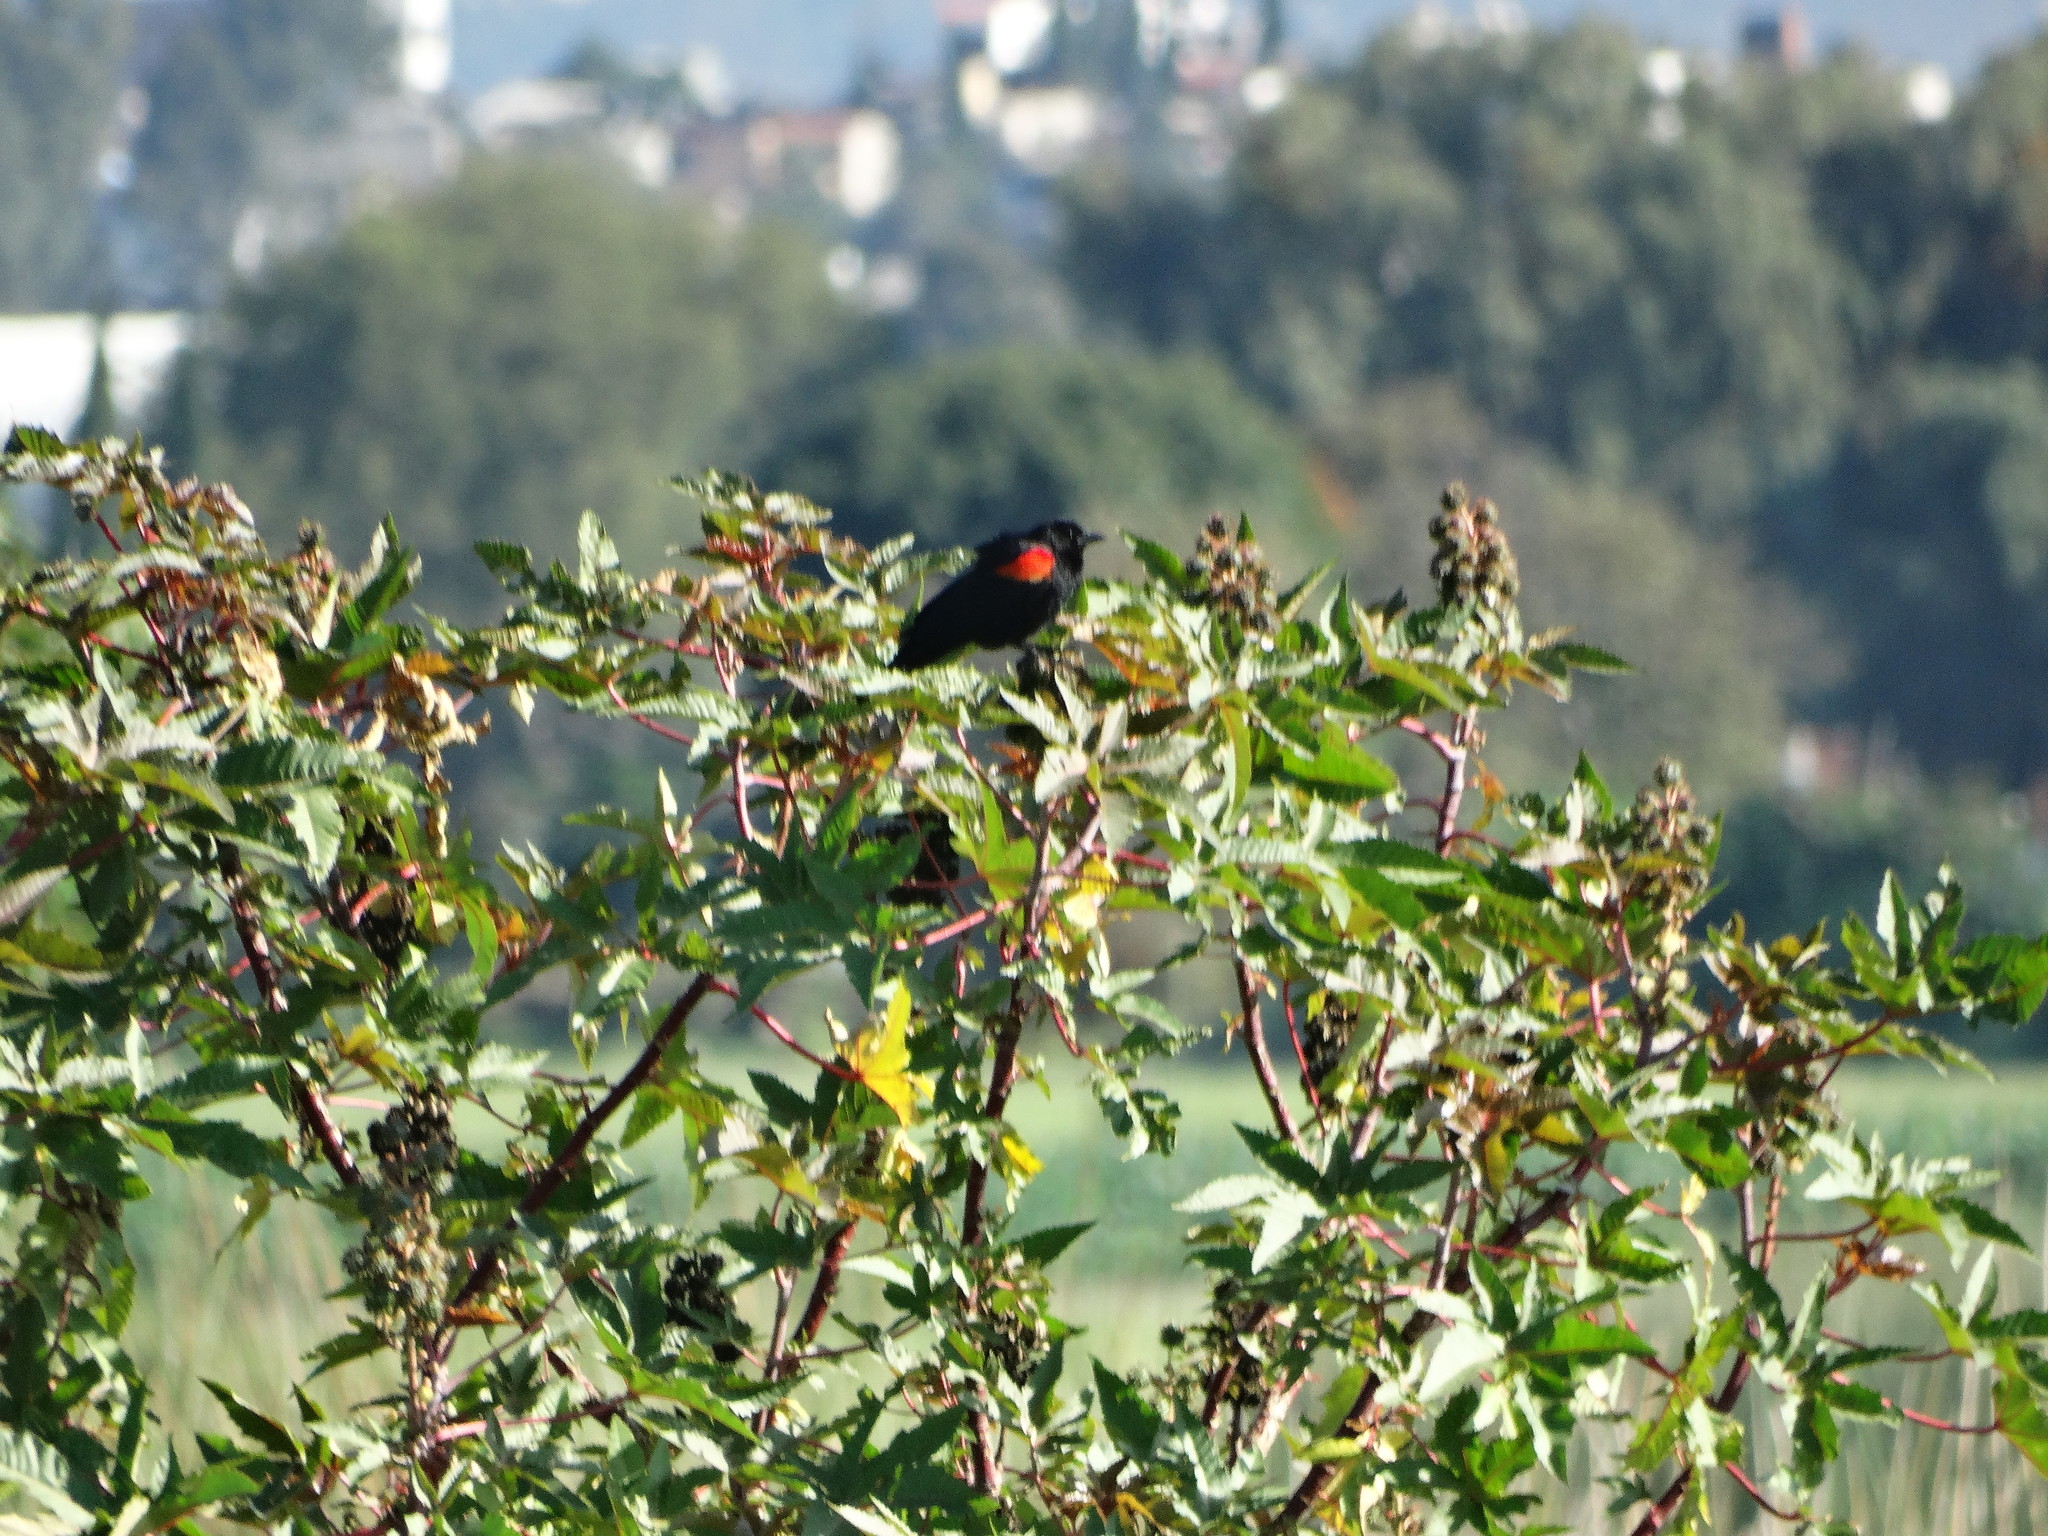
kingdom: Animalia
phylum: Chordata
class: Aves
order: Passeriformes
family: Icteridae
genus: Agelaius
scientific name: Agelaius phoeniceus
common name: Red-winged blackbird
